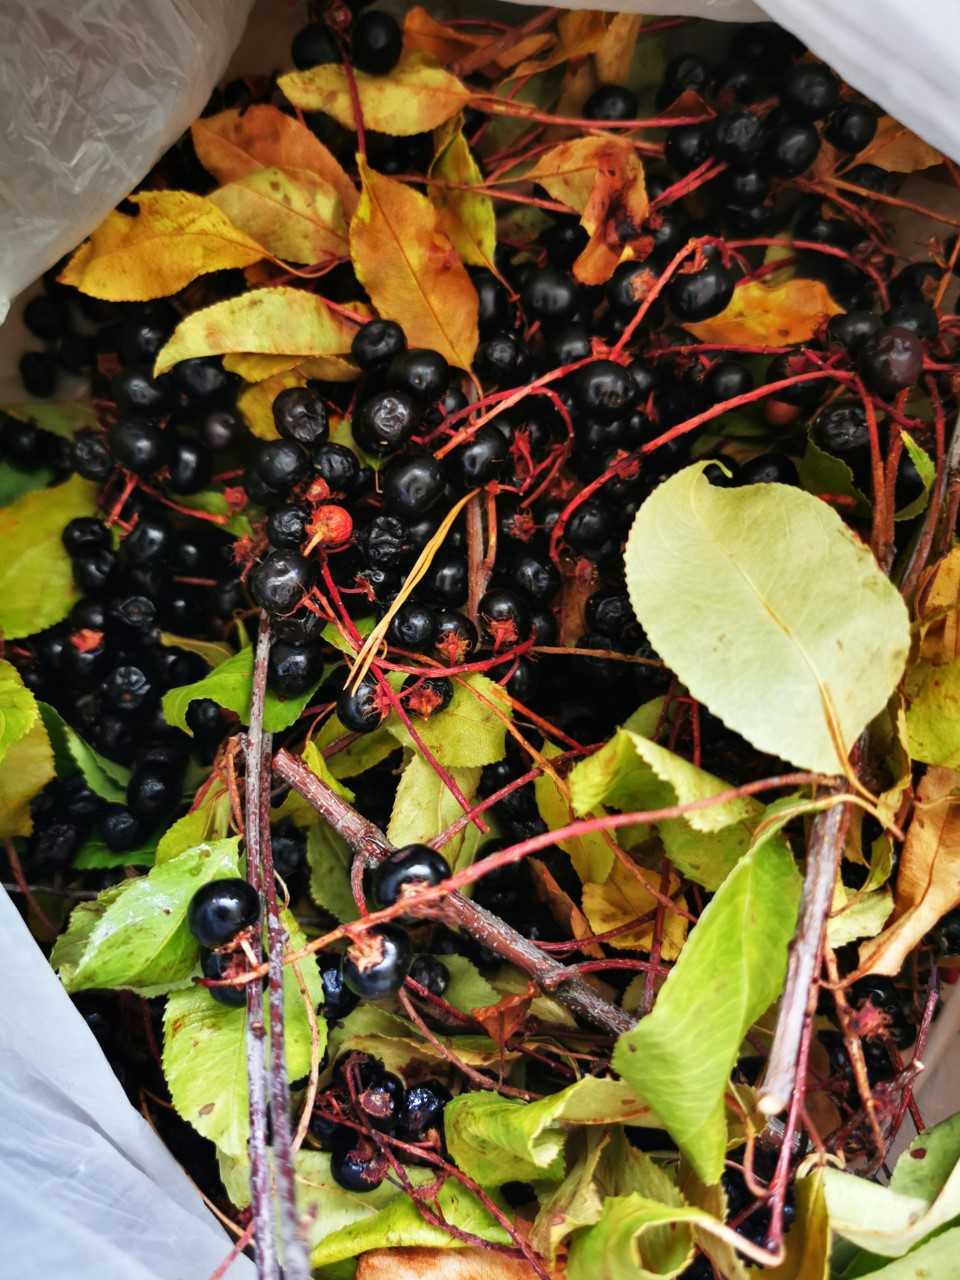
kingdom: Plantae
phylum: Tracheophyta
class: Magnoliopsida
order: Rosales
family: Rosaceae
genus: Prunus
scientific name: Prunus serotina
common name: Black cherry
